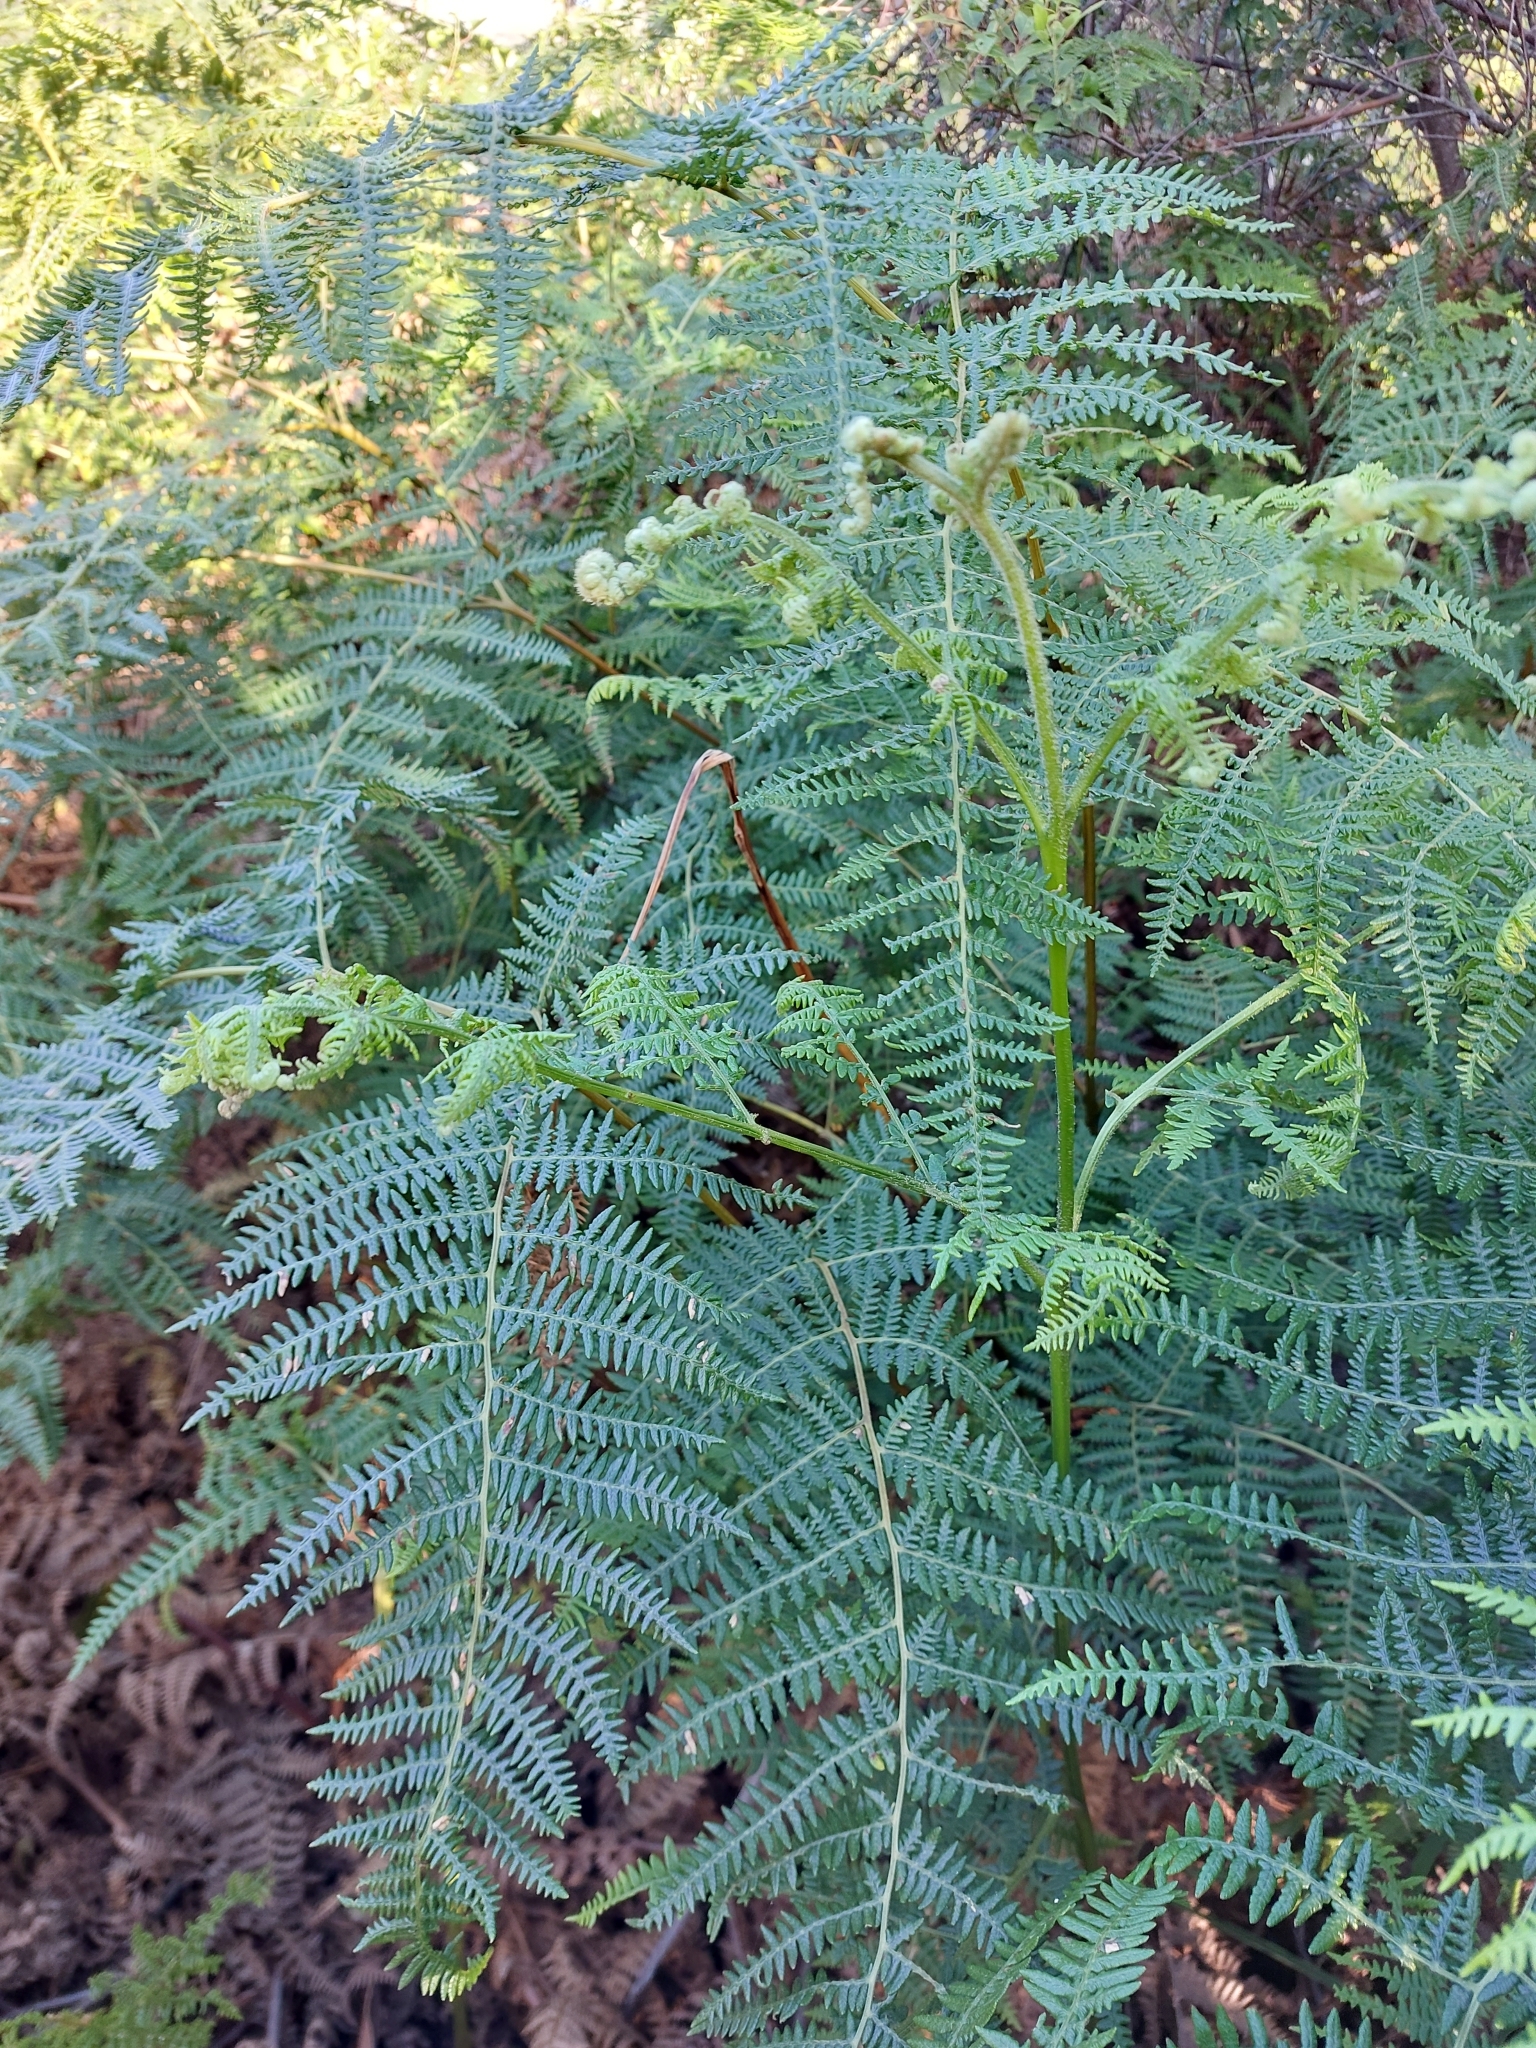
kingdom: Plantae
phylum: Tracheophyta
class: Polypodiopsida
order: Polypodiales
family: Dennstaedtiaceae
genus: Pteridium
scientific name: Pteridium aquilinum
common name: Bracken
